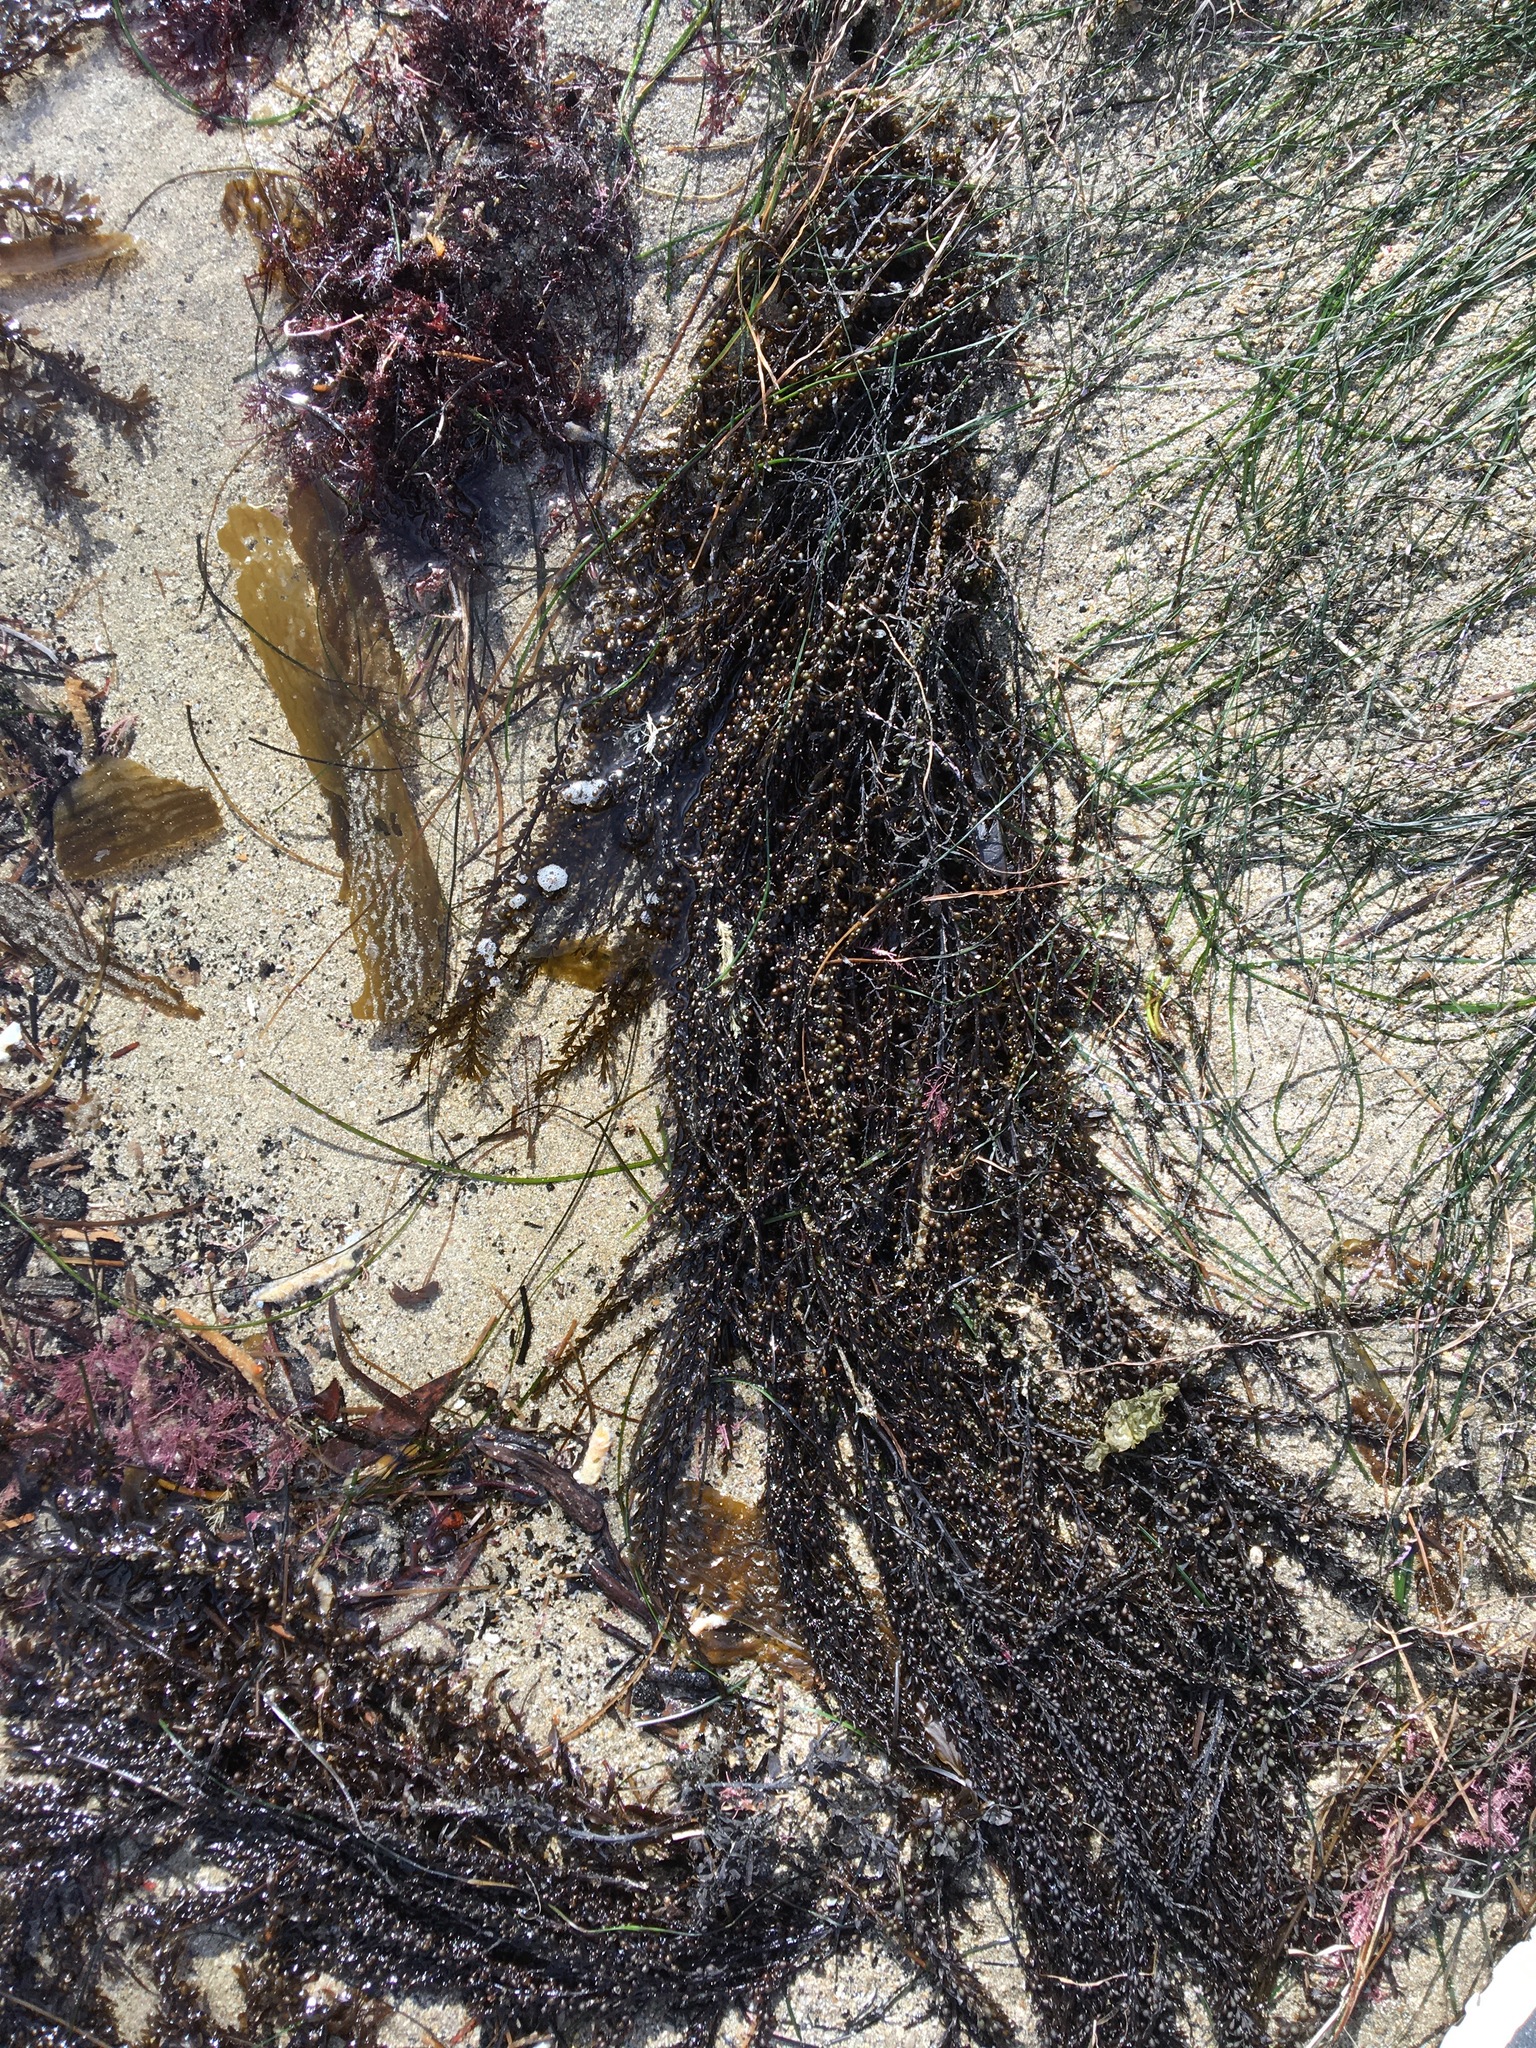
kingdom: Chromista
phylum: Ochrophyta
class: Phaeophyceae
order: Fucales
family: Sargassaceae
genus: Sargassum
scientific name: Sargassum muticum
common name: Japweed
